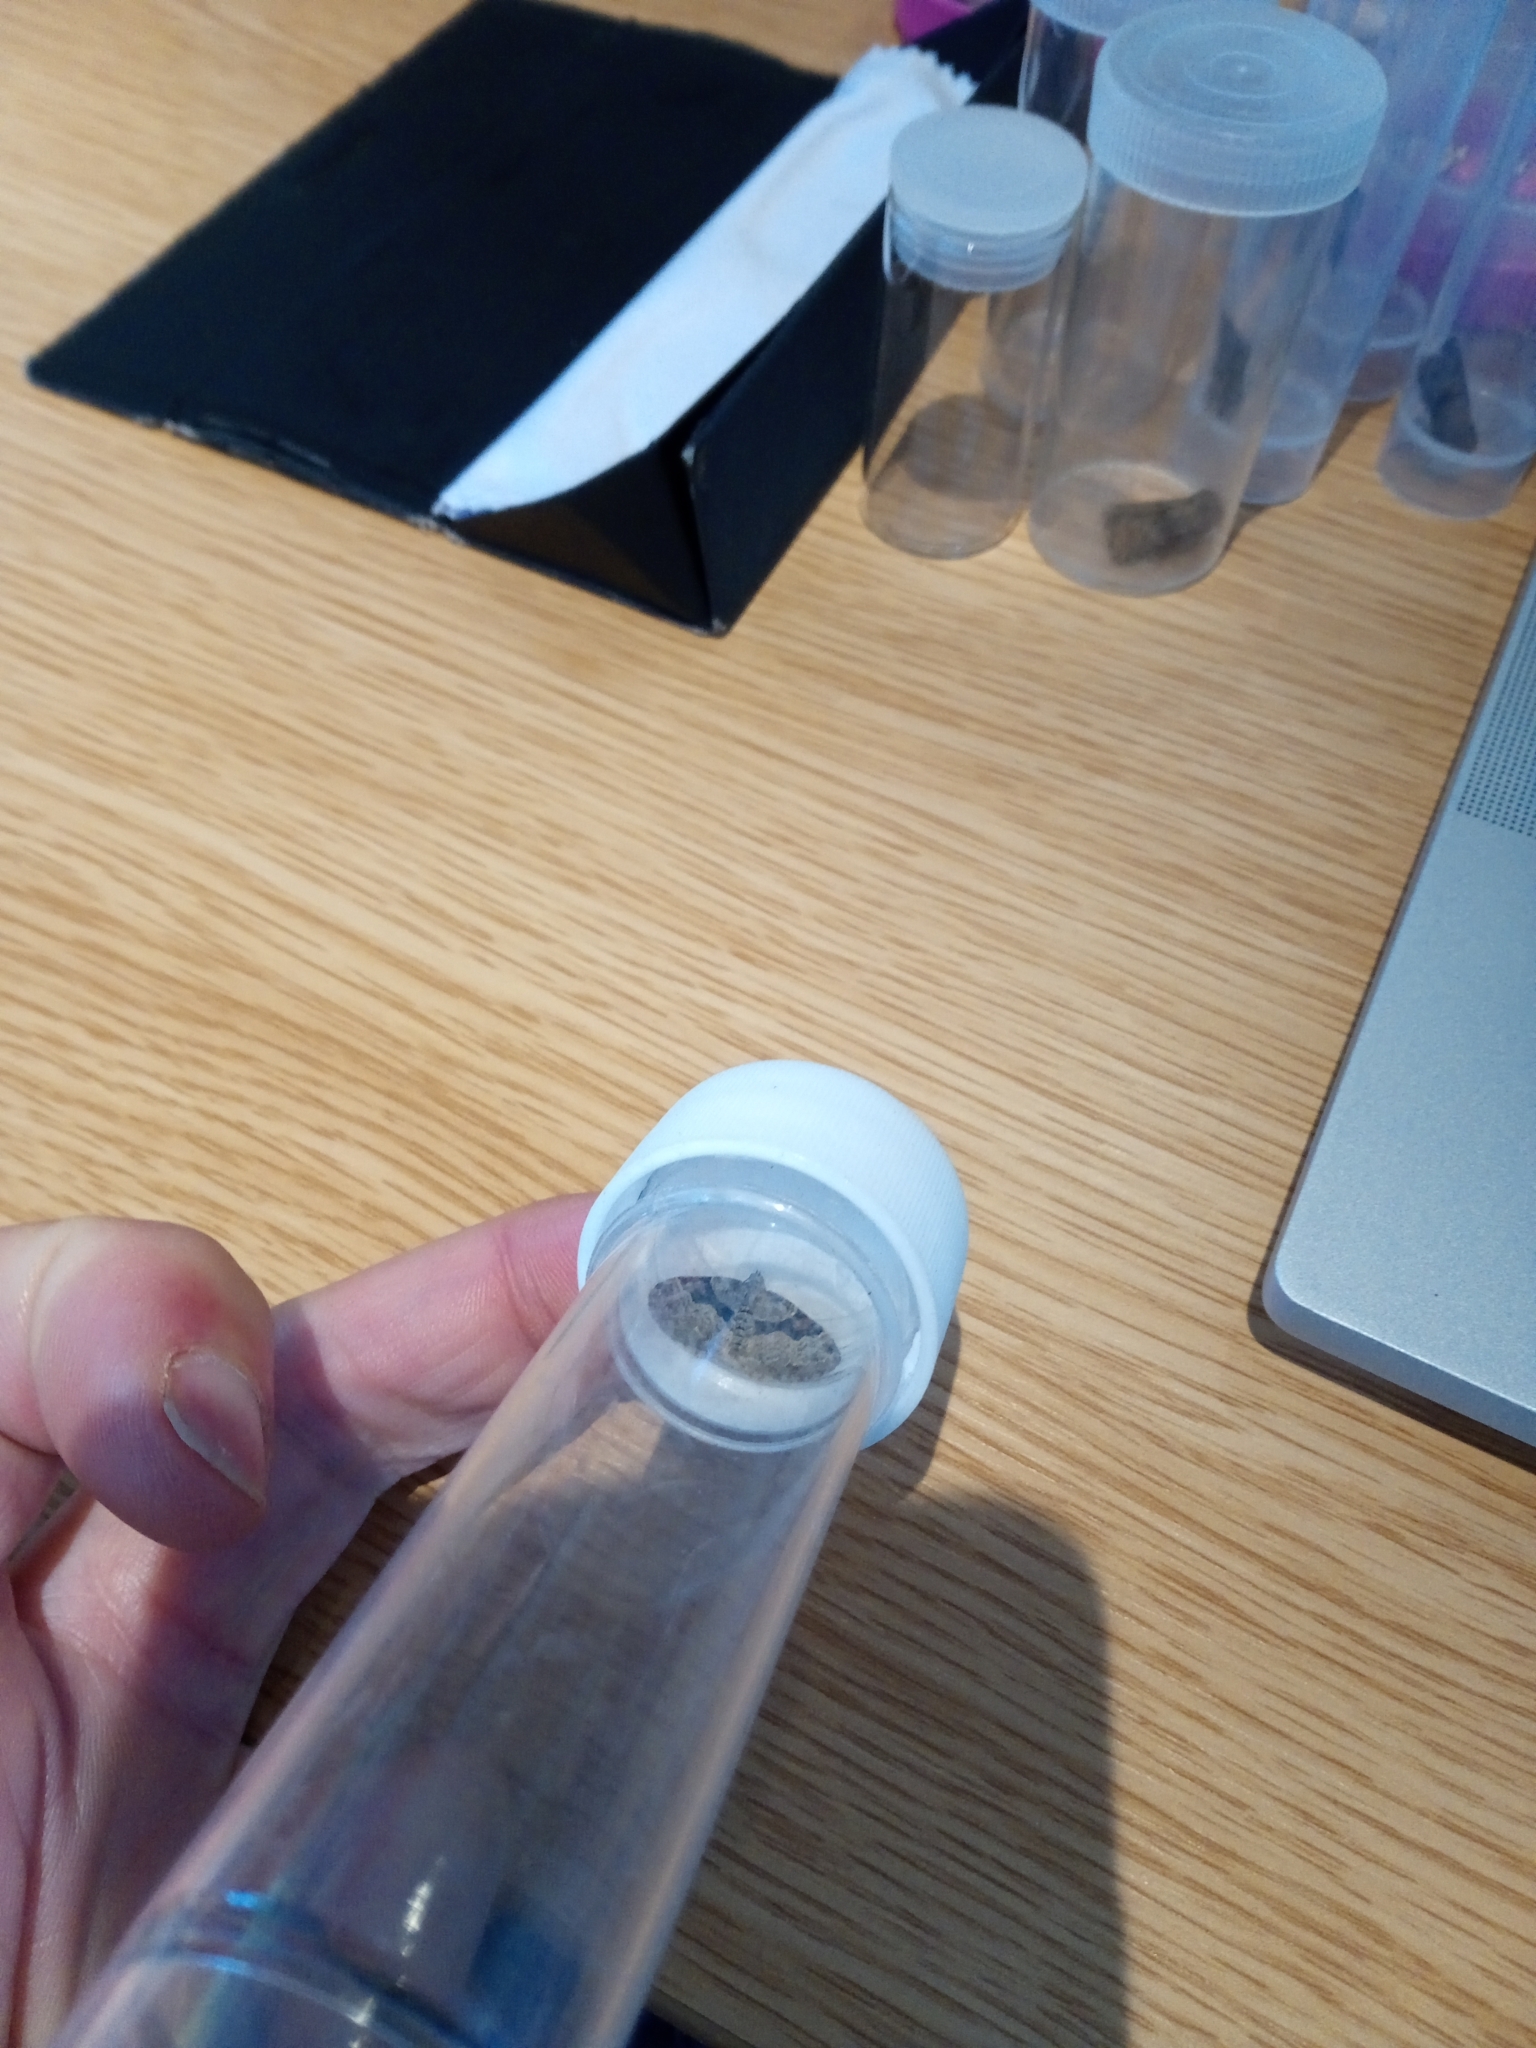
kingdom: Animalia
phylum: Arthropoda
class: Insecta
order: Lepidoptera
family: Geometridae
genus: Xanthorhoe
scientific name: Xanthorhoe designata
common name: Flame carpet
